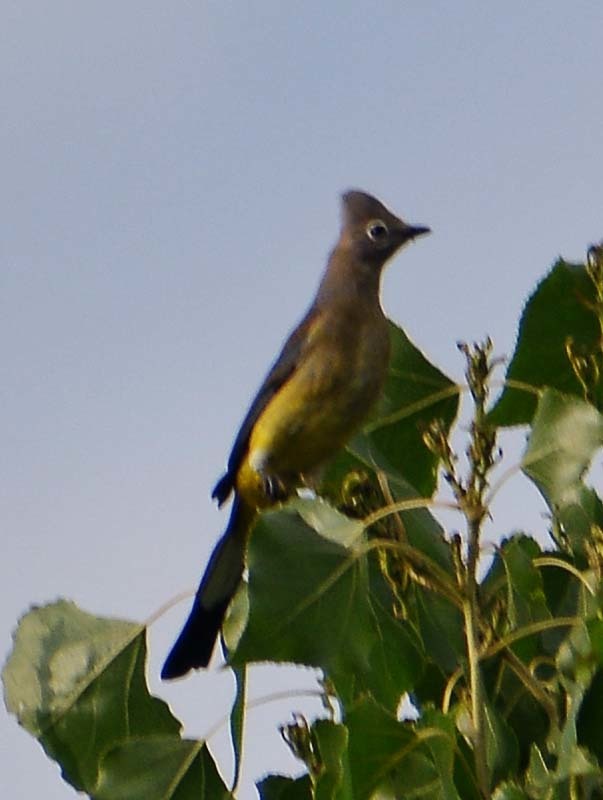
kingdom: Animalia
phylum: Chordata
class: Aves
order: Passeriformes
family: Ptilogonatidae
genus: Ptilogonys
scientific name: Ptilogonys cinereus
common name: Gray silky-flycatcher
